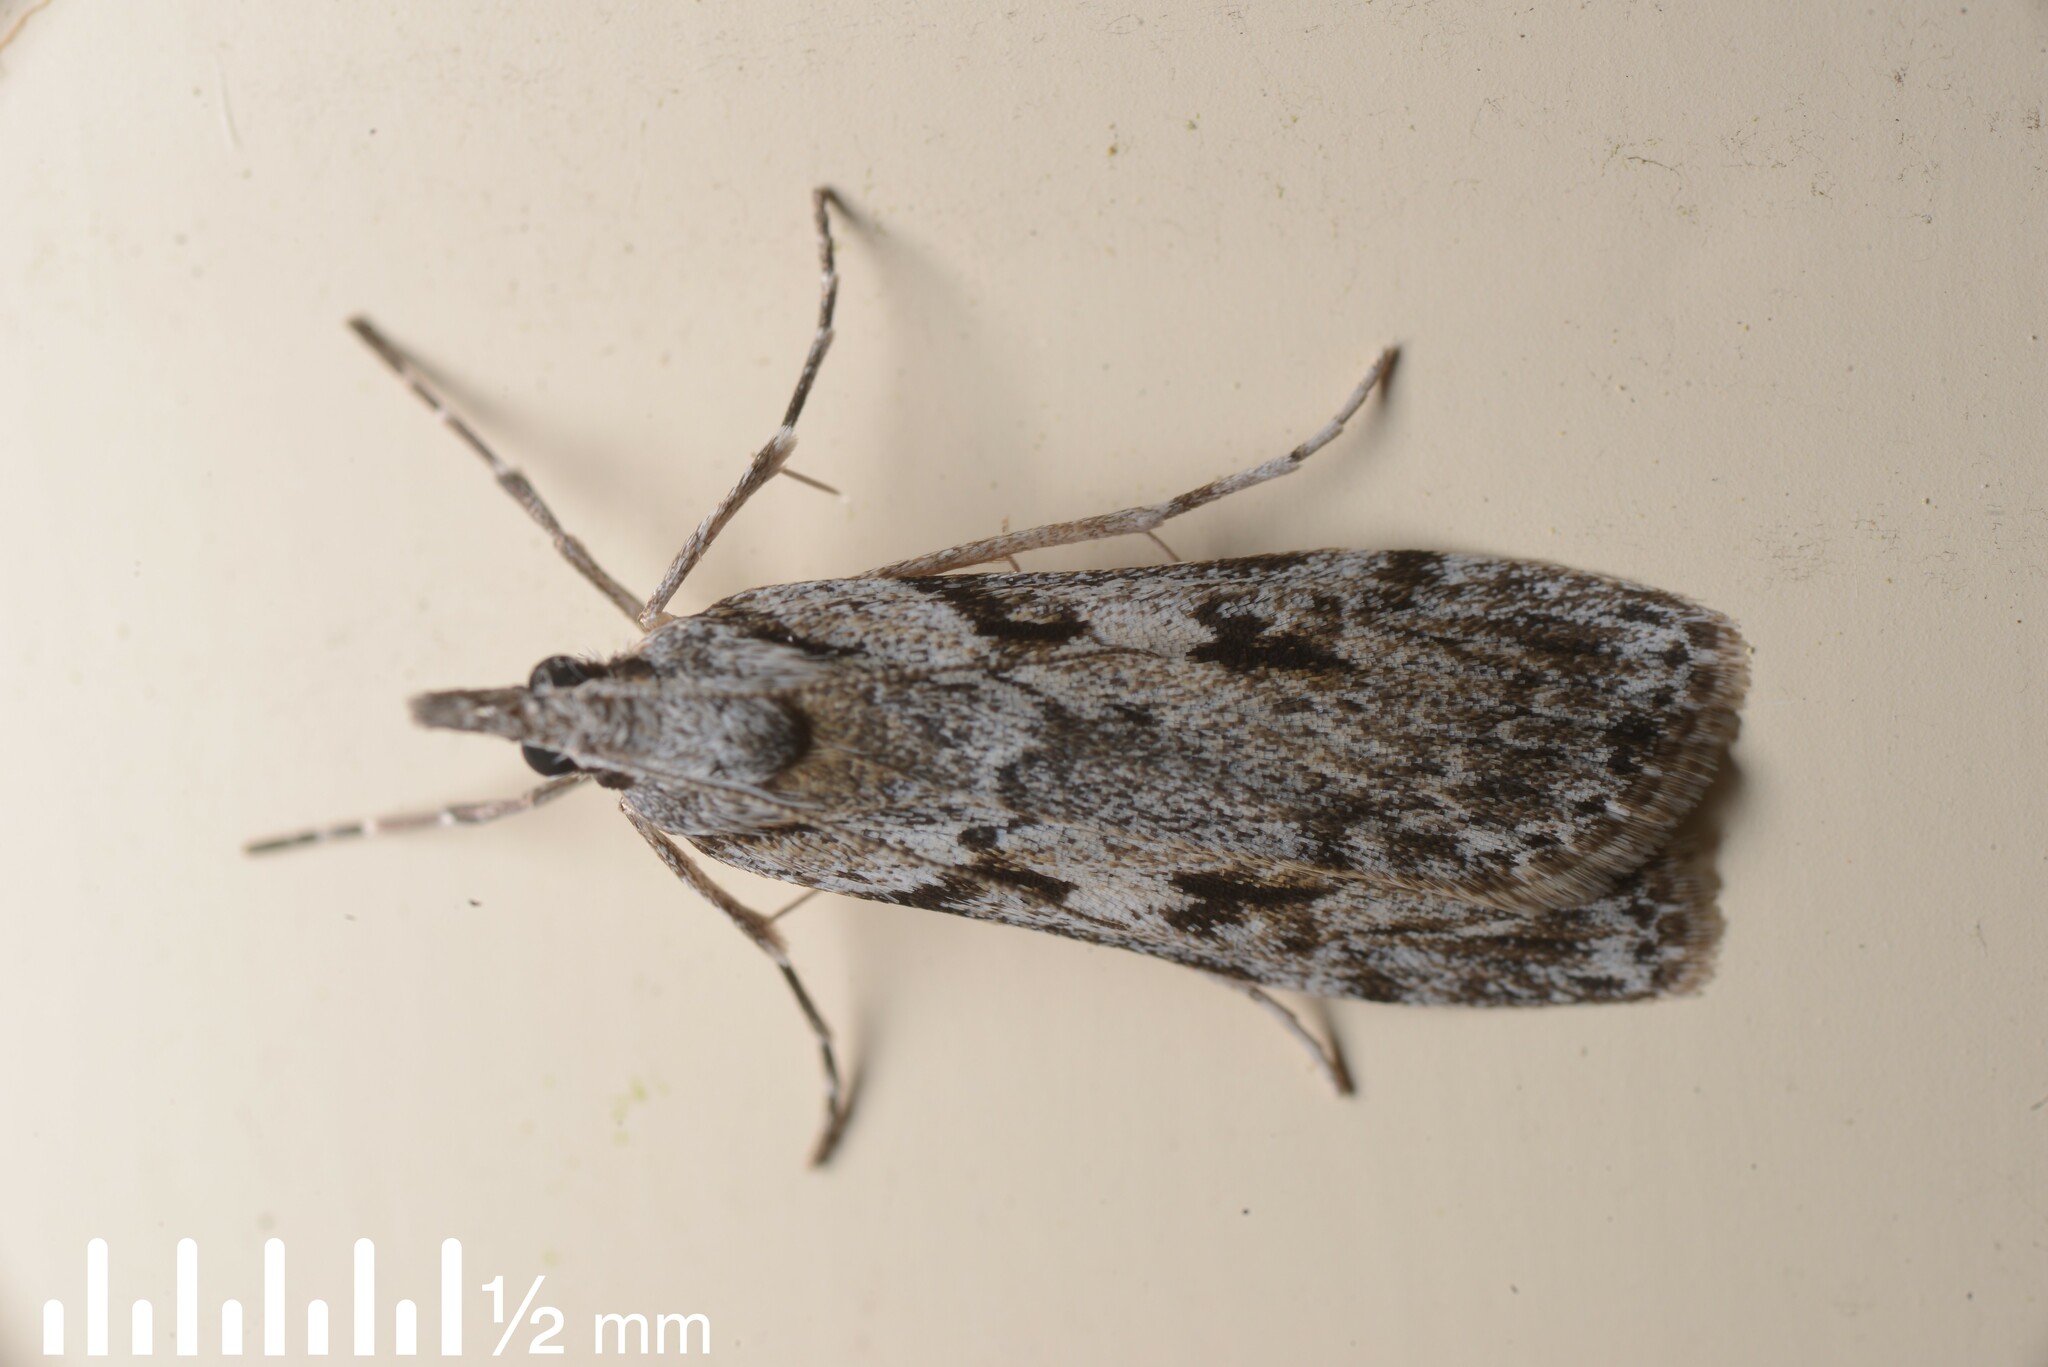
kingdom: Animalia
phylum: Arthropoda
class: Insecta
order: Lepidoptera
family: Crambidae
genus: Scoparia
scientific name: Scoparia halopis
